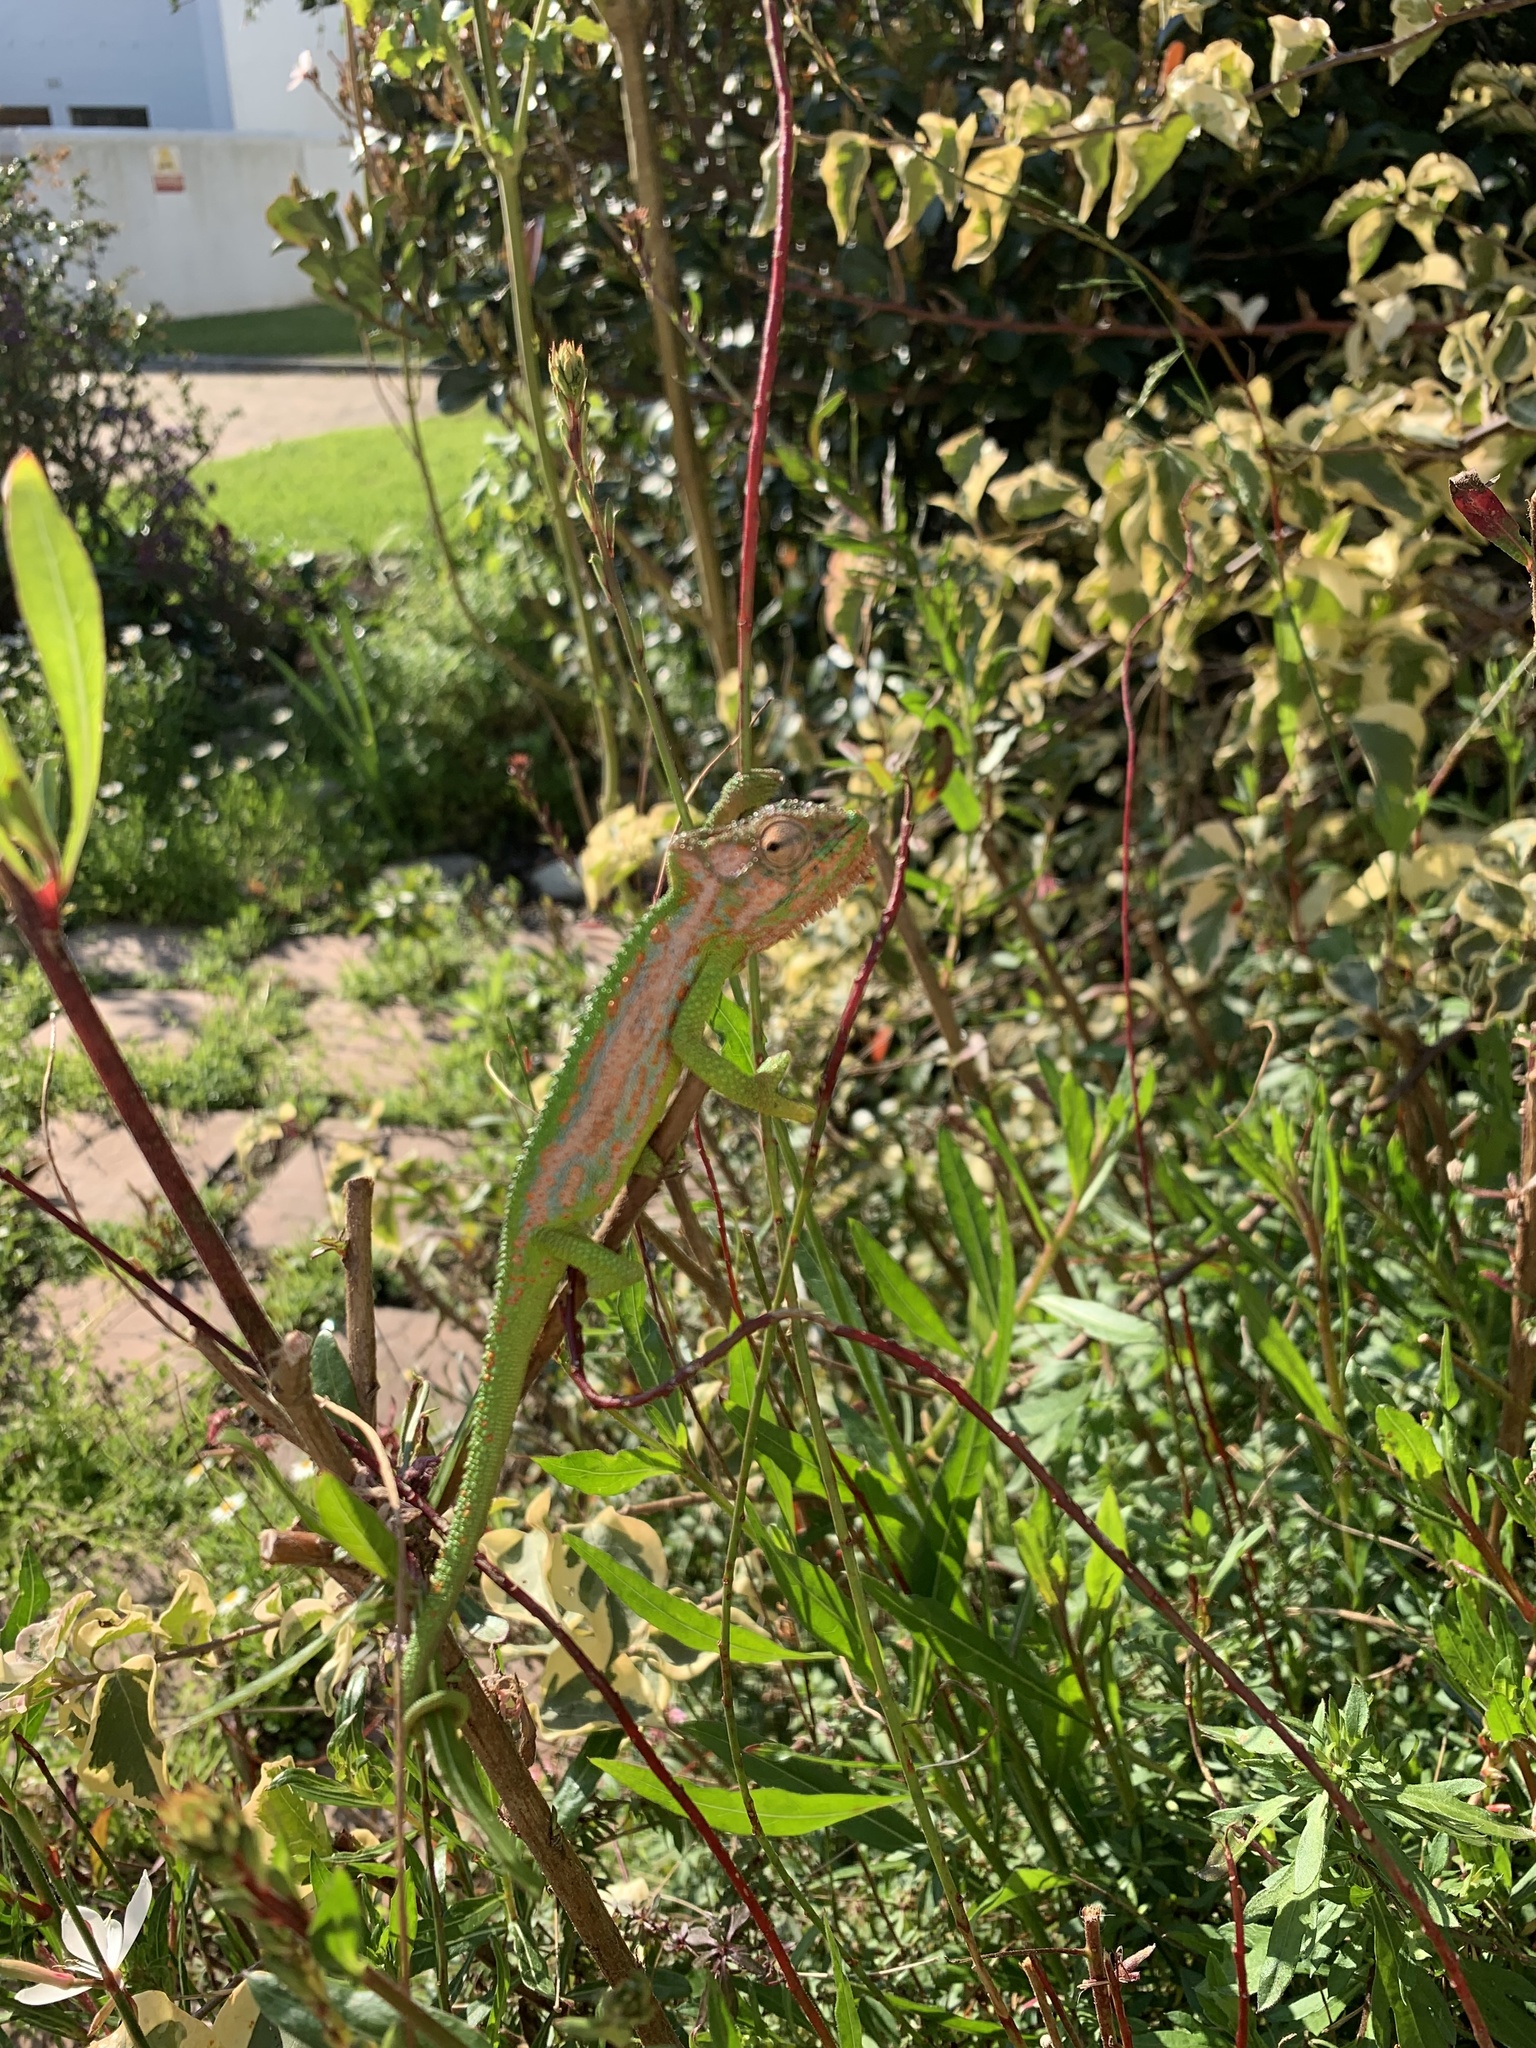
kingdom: Animalia
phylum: Chordata
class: Squamata
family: Chamaeleonidae
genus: Bradypodion
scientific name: Bradypodion pumilum
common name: Cape dwarf chameleon
